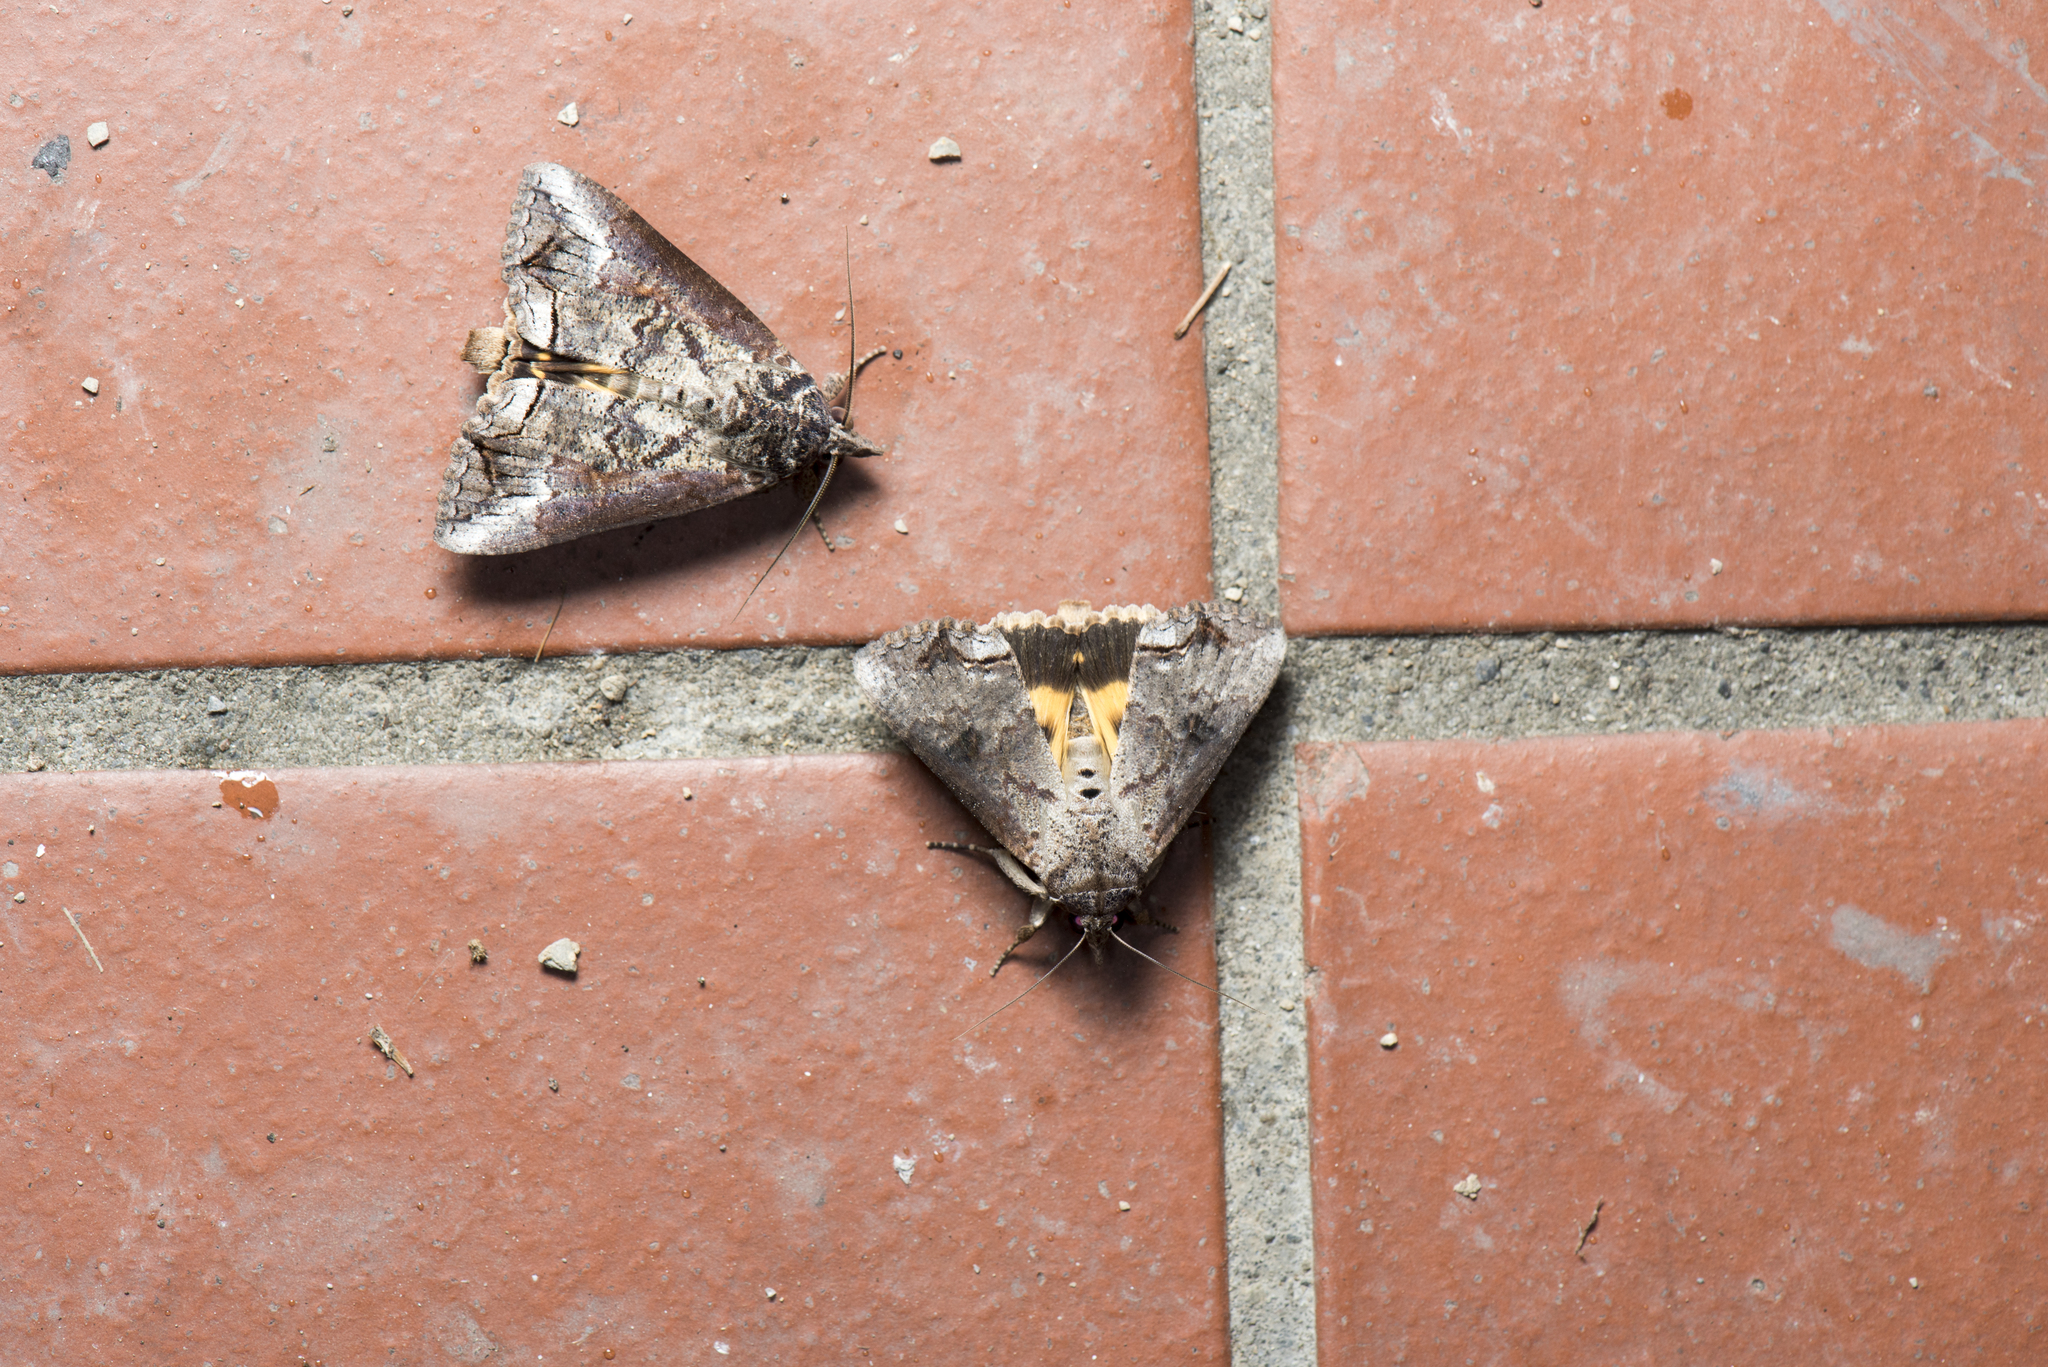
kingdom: Animalia
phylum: Arthropoda
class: Insecta
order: Lepidoptera
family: Erebidae
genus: Hypocala
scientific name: Hypocala deflorata
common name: Moth
